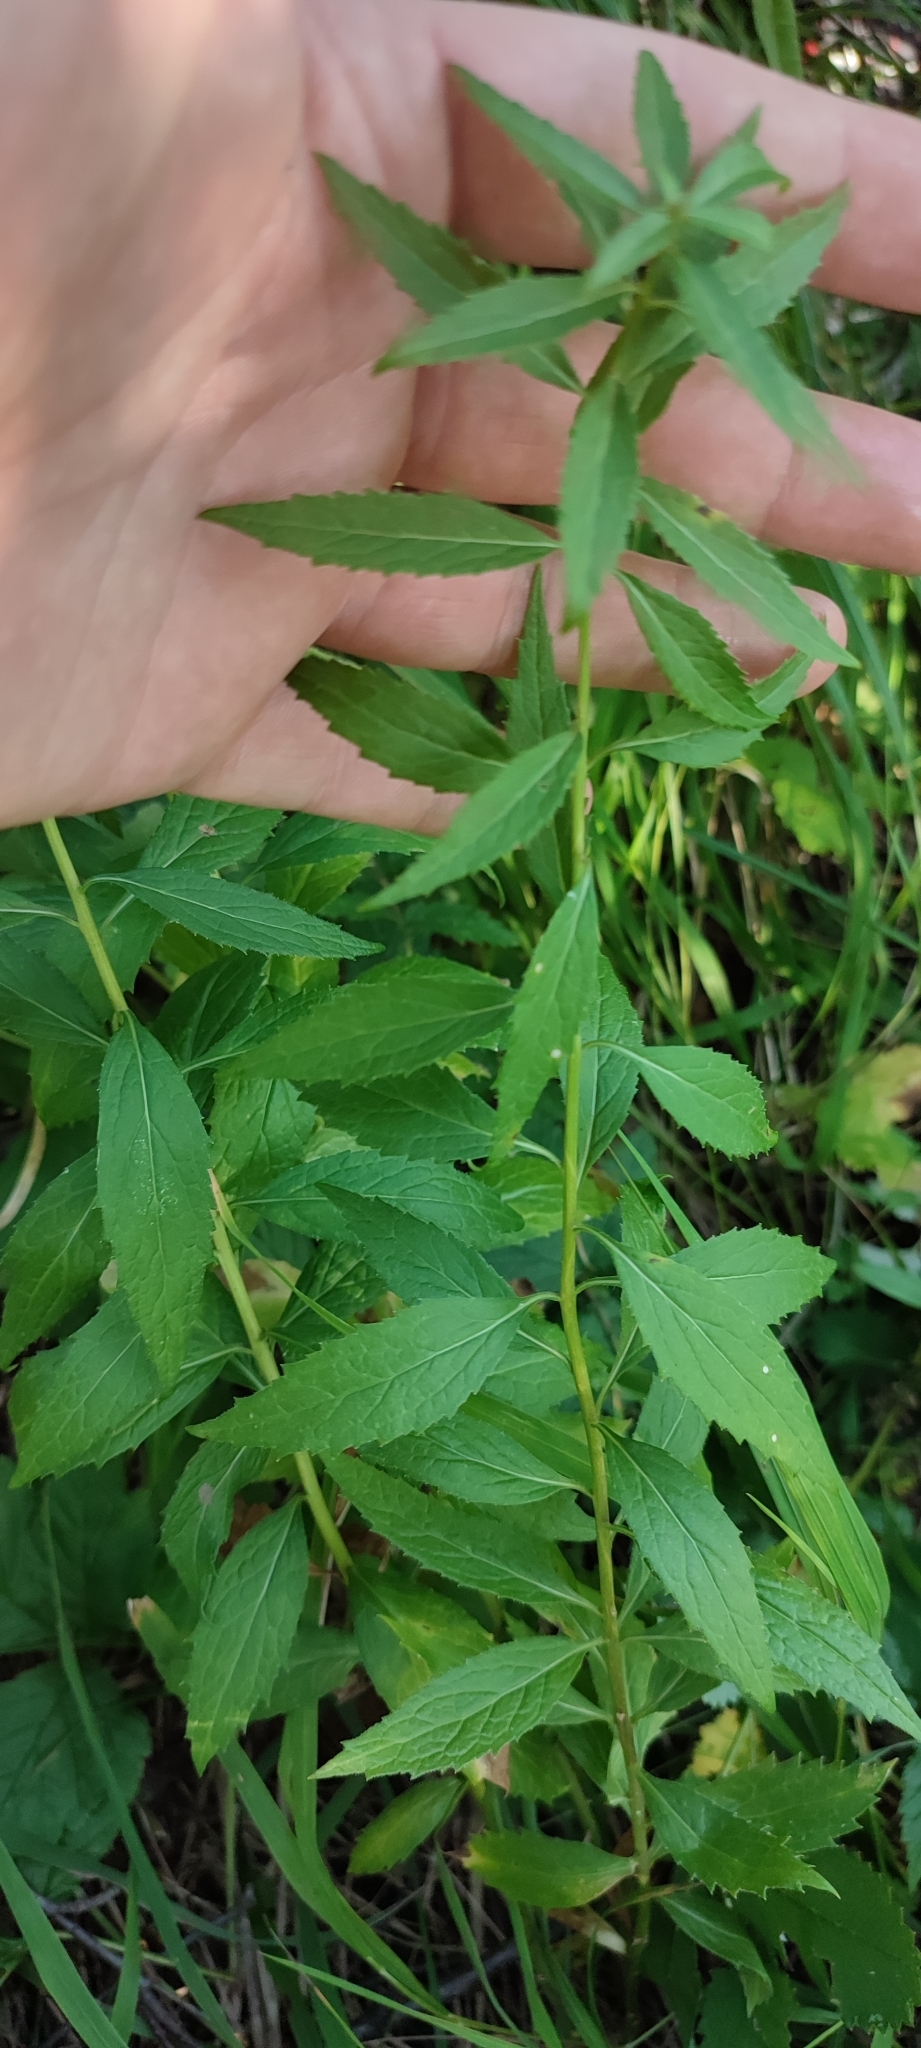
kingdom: Plantae
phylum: Tracheophyta
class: Magnoliopsida
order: Asterales
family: Campanulaceae
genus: Adenophora
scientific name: Adenophora liliifolia
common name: Lilyleaf ladybells
